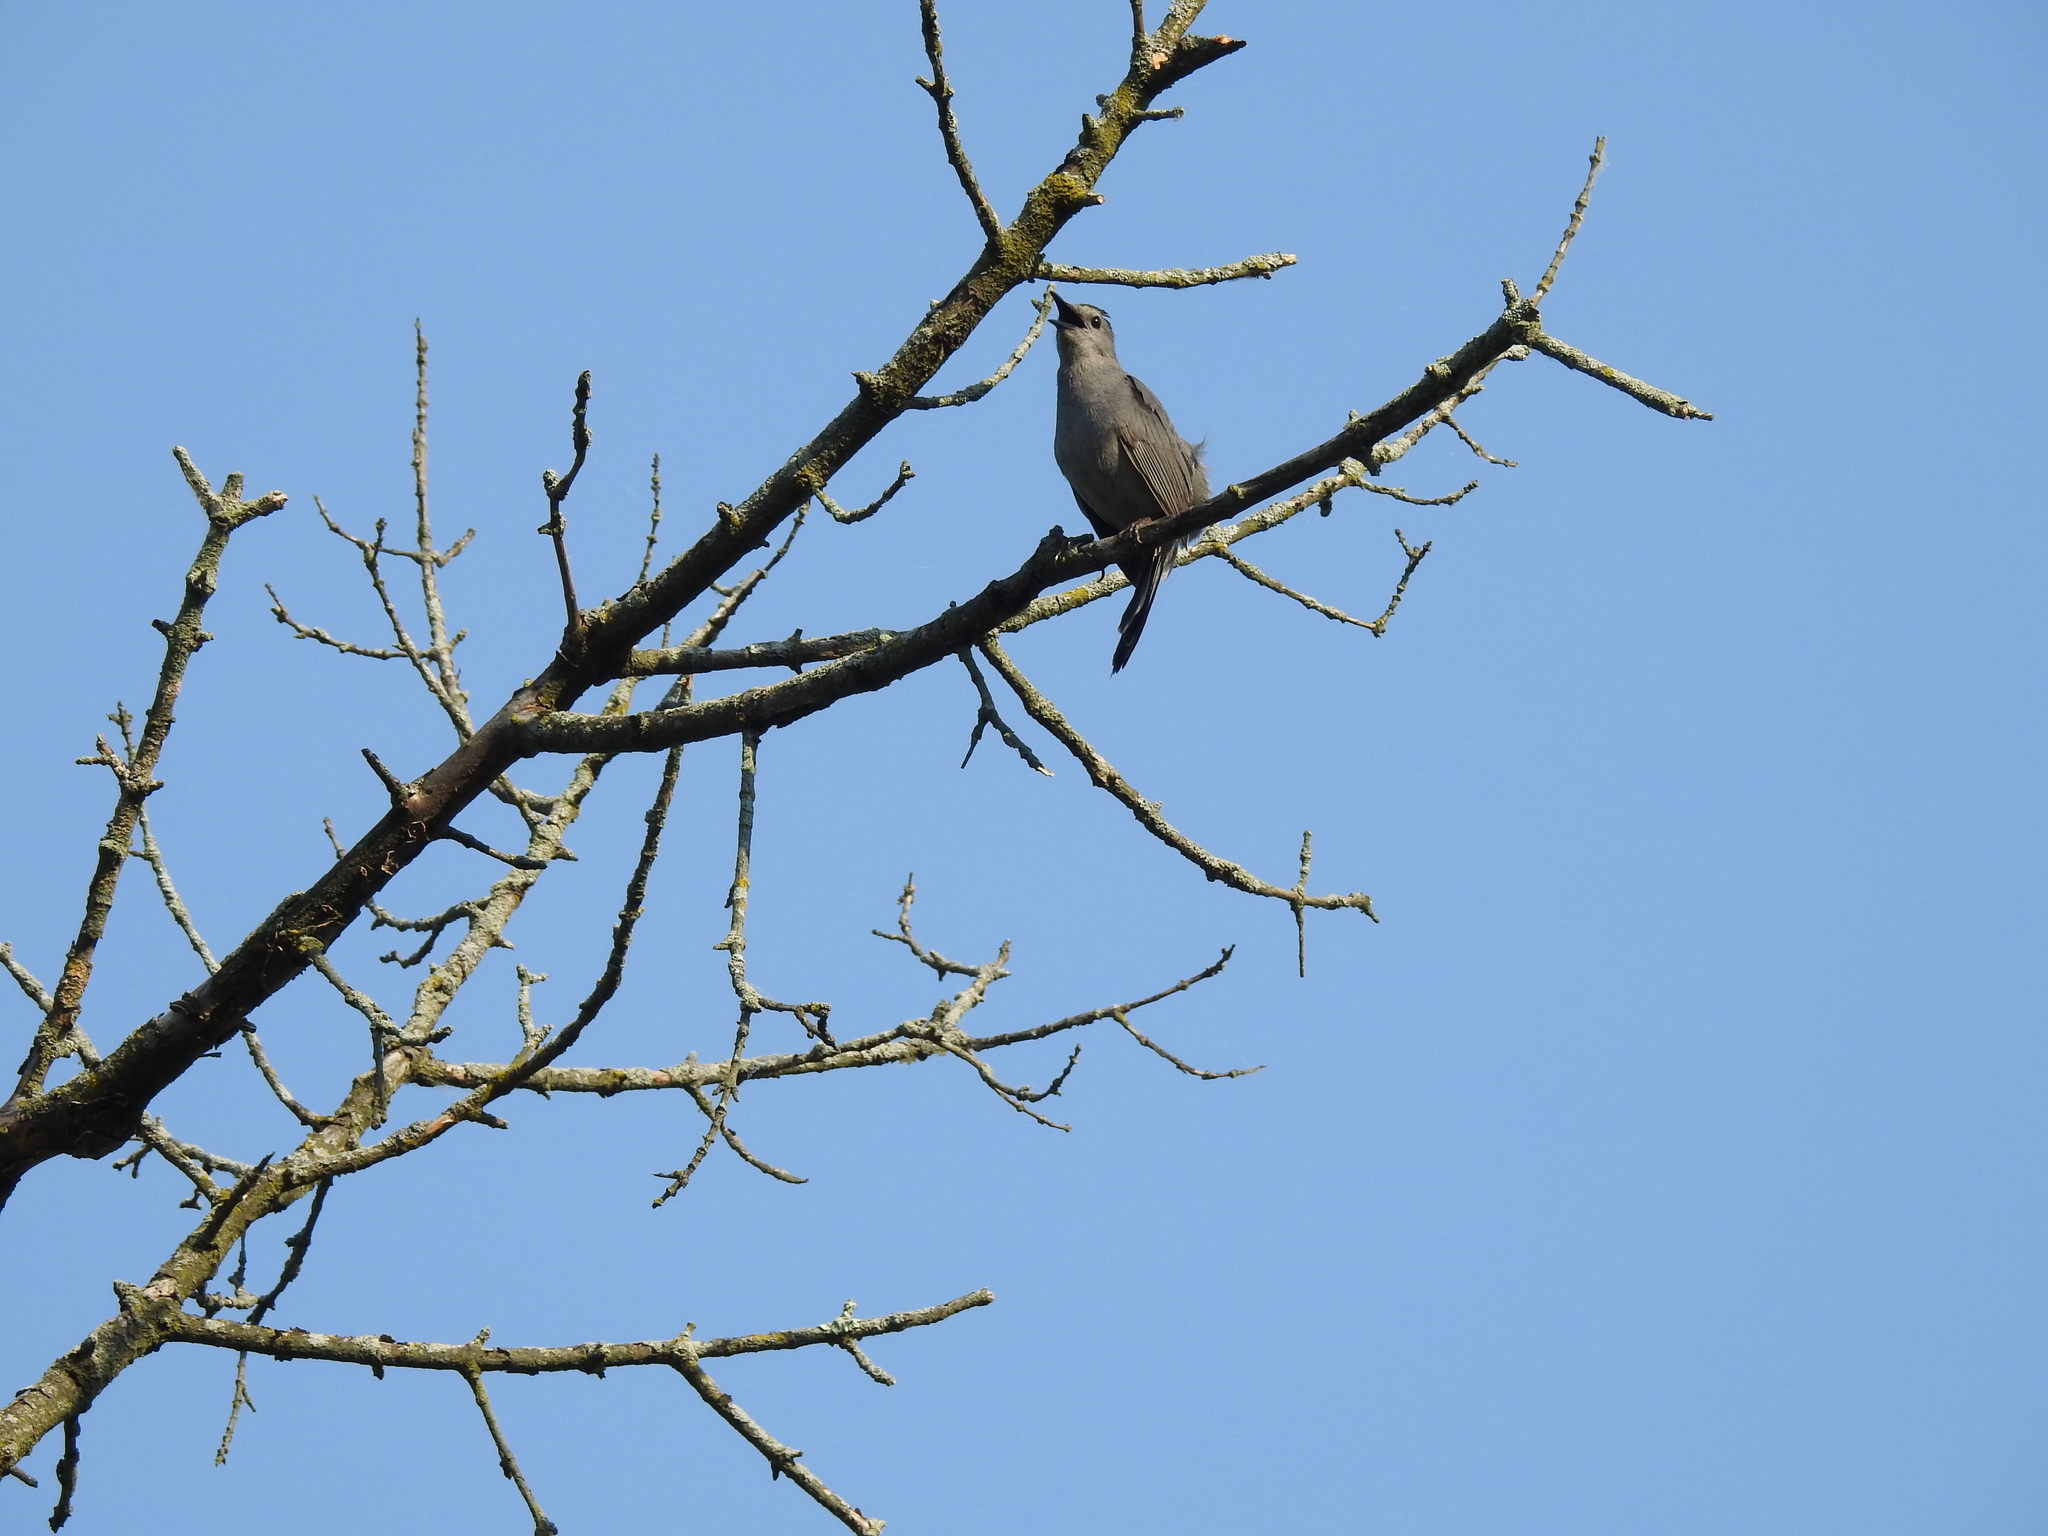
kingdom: Animalia
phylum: Chordata
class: Aves
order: Passeriformes
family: Mimidae
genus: Dumetella
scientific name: Dumetella carolinensis
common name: Gray catbird
